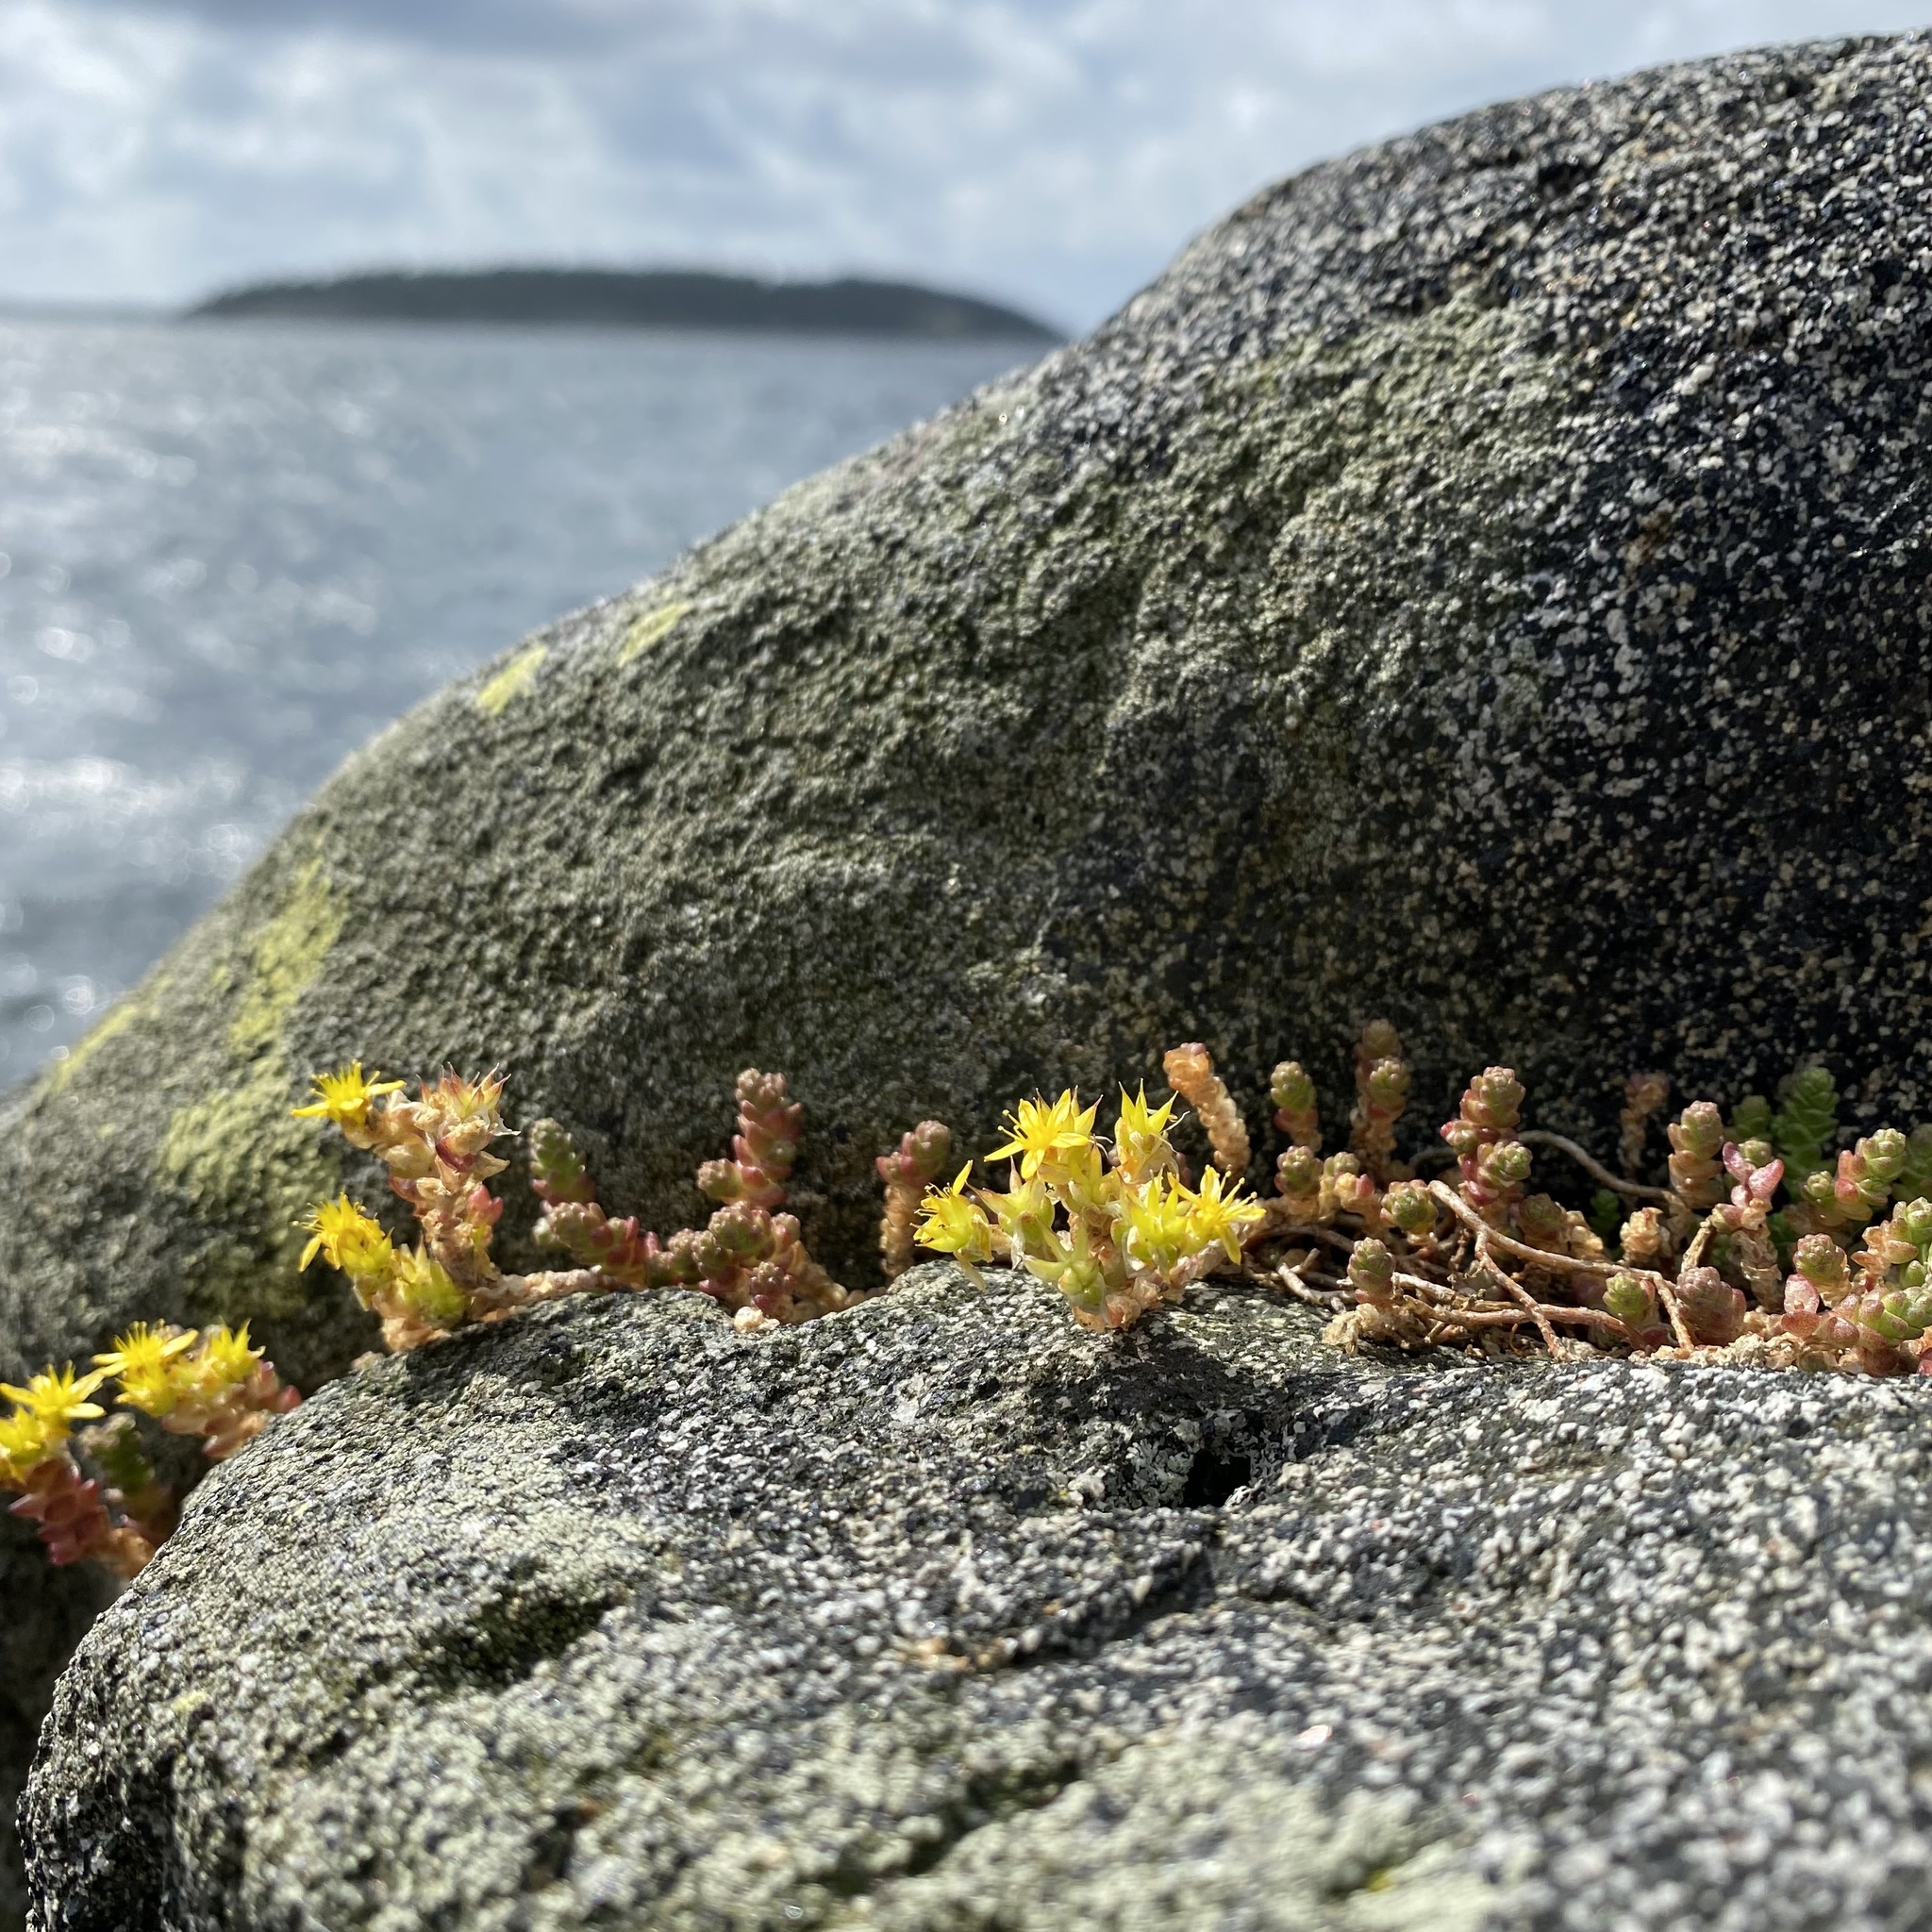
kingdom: Plantae
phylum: Tracheophyta
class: Magnoliopsida
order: Saxifragales
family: Crassulaceae
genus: Sedum
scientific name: Sedum acre
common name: Biting stonecrop
